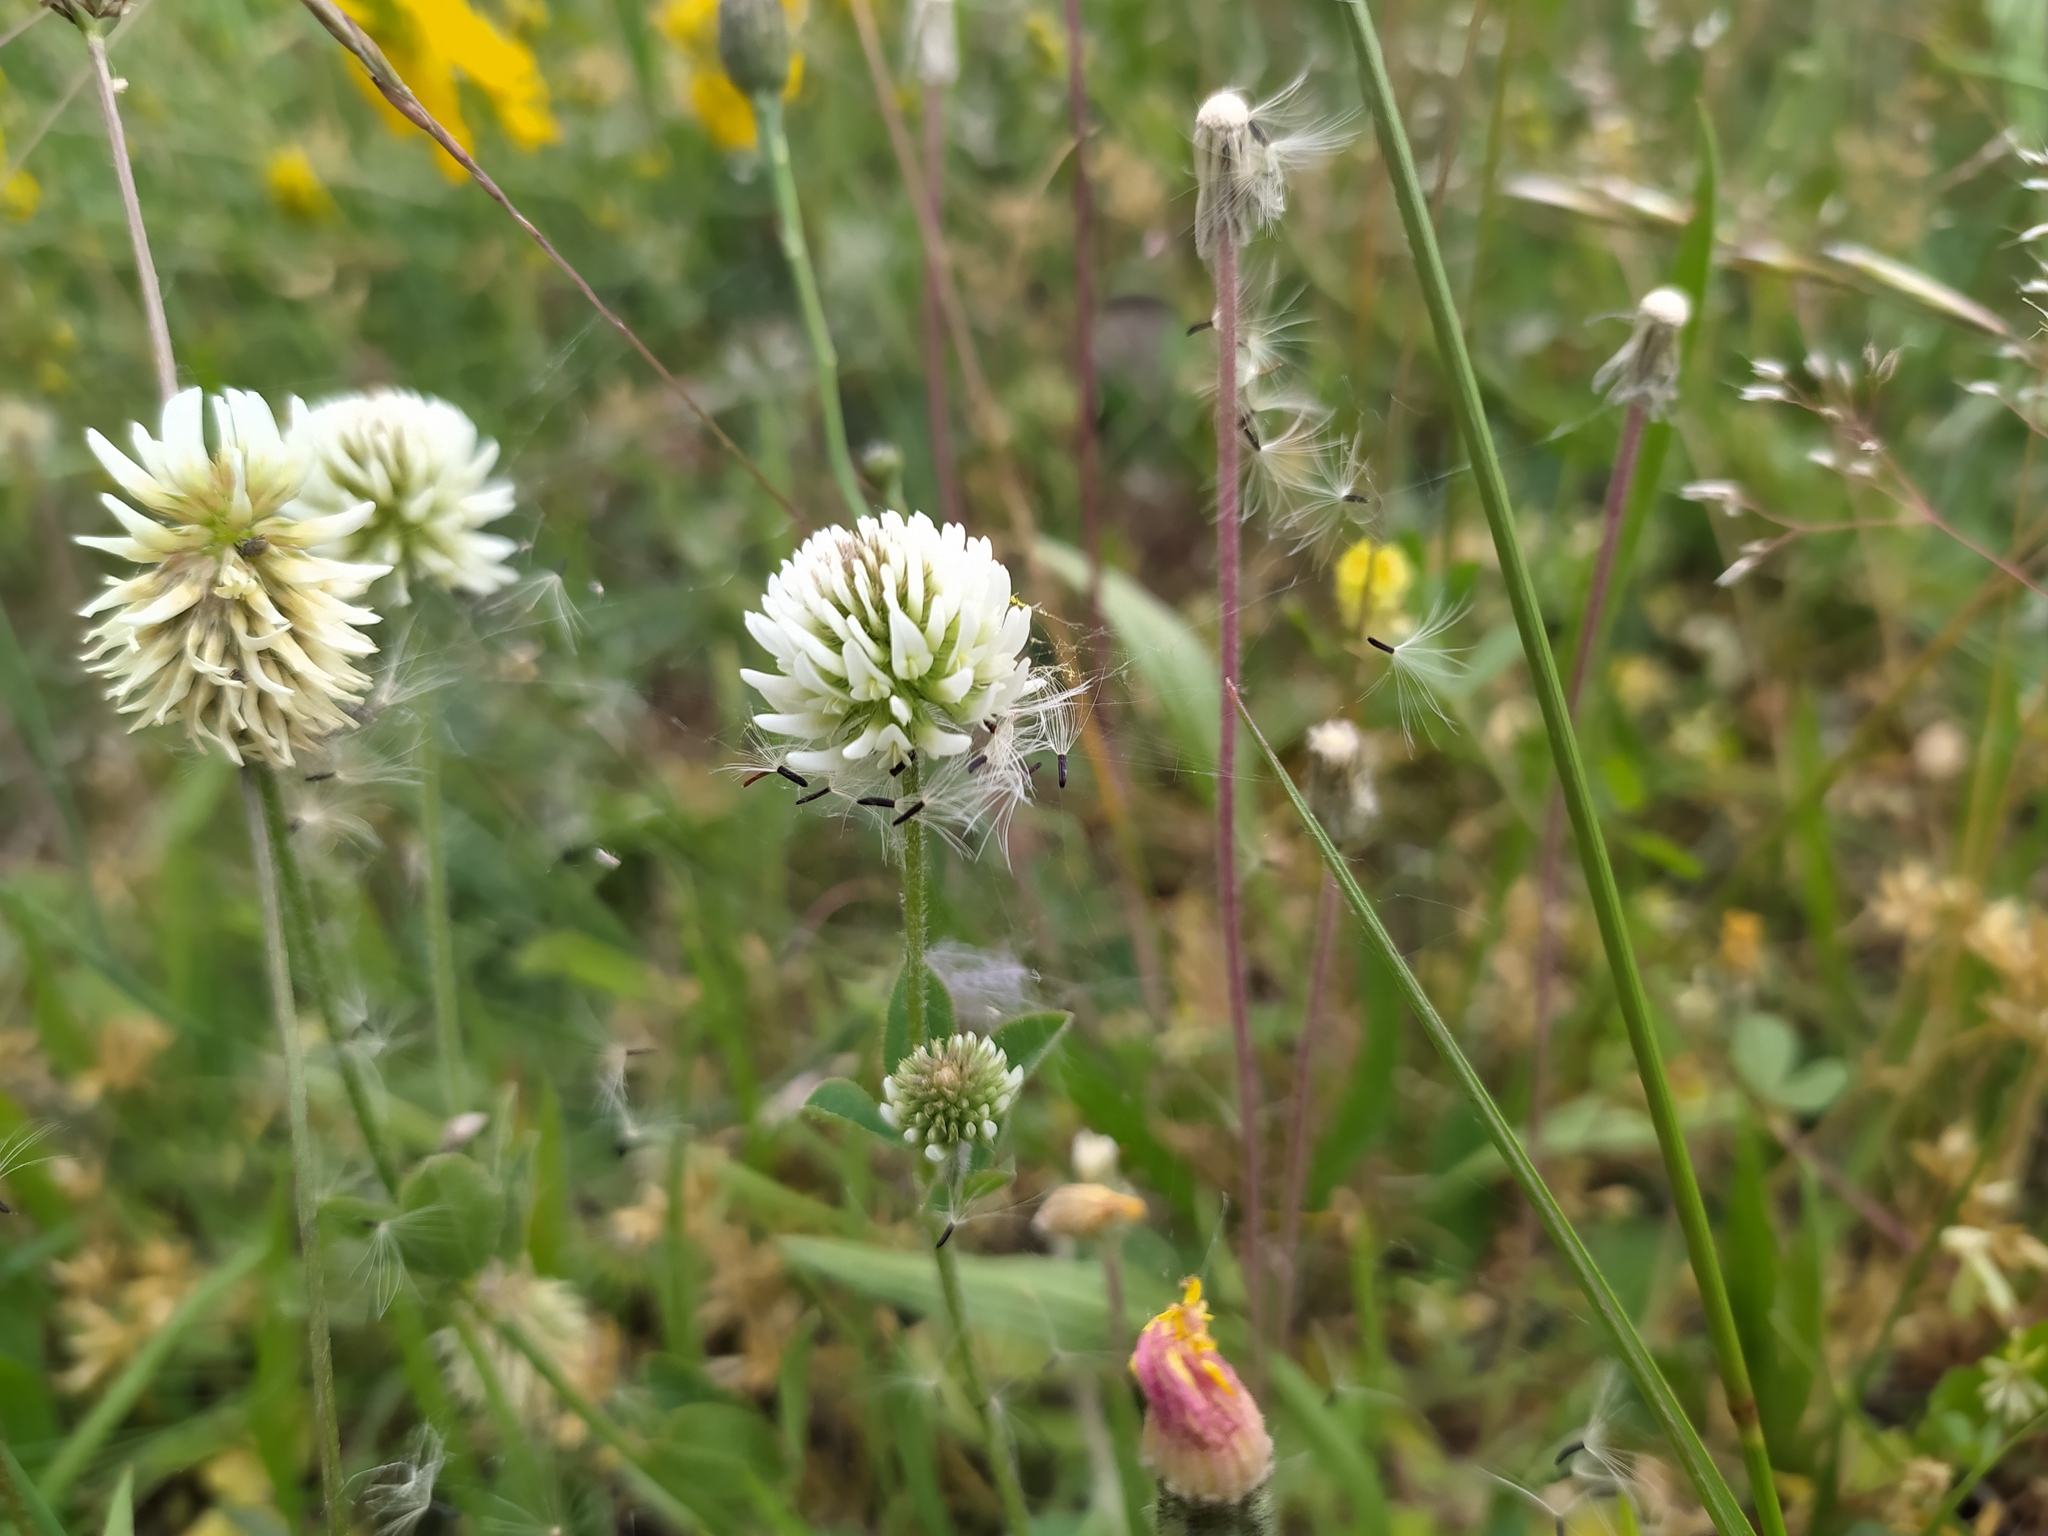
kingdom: Plantae
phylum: Tracheophyta
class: Magnoliopsida
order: Fabales
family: Fabaceae
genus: Trifolium
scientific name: Trifolium montanum
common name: Mountain clover
